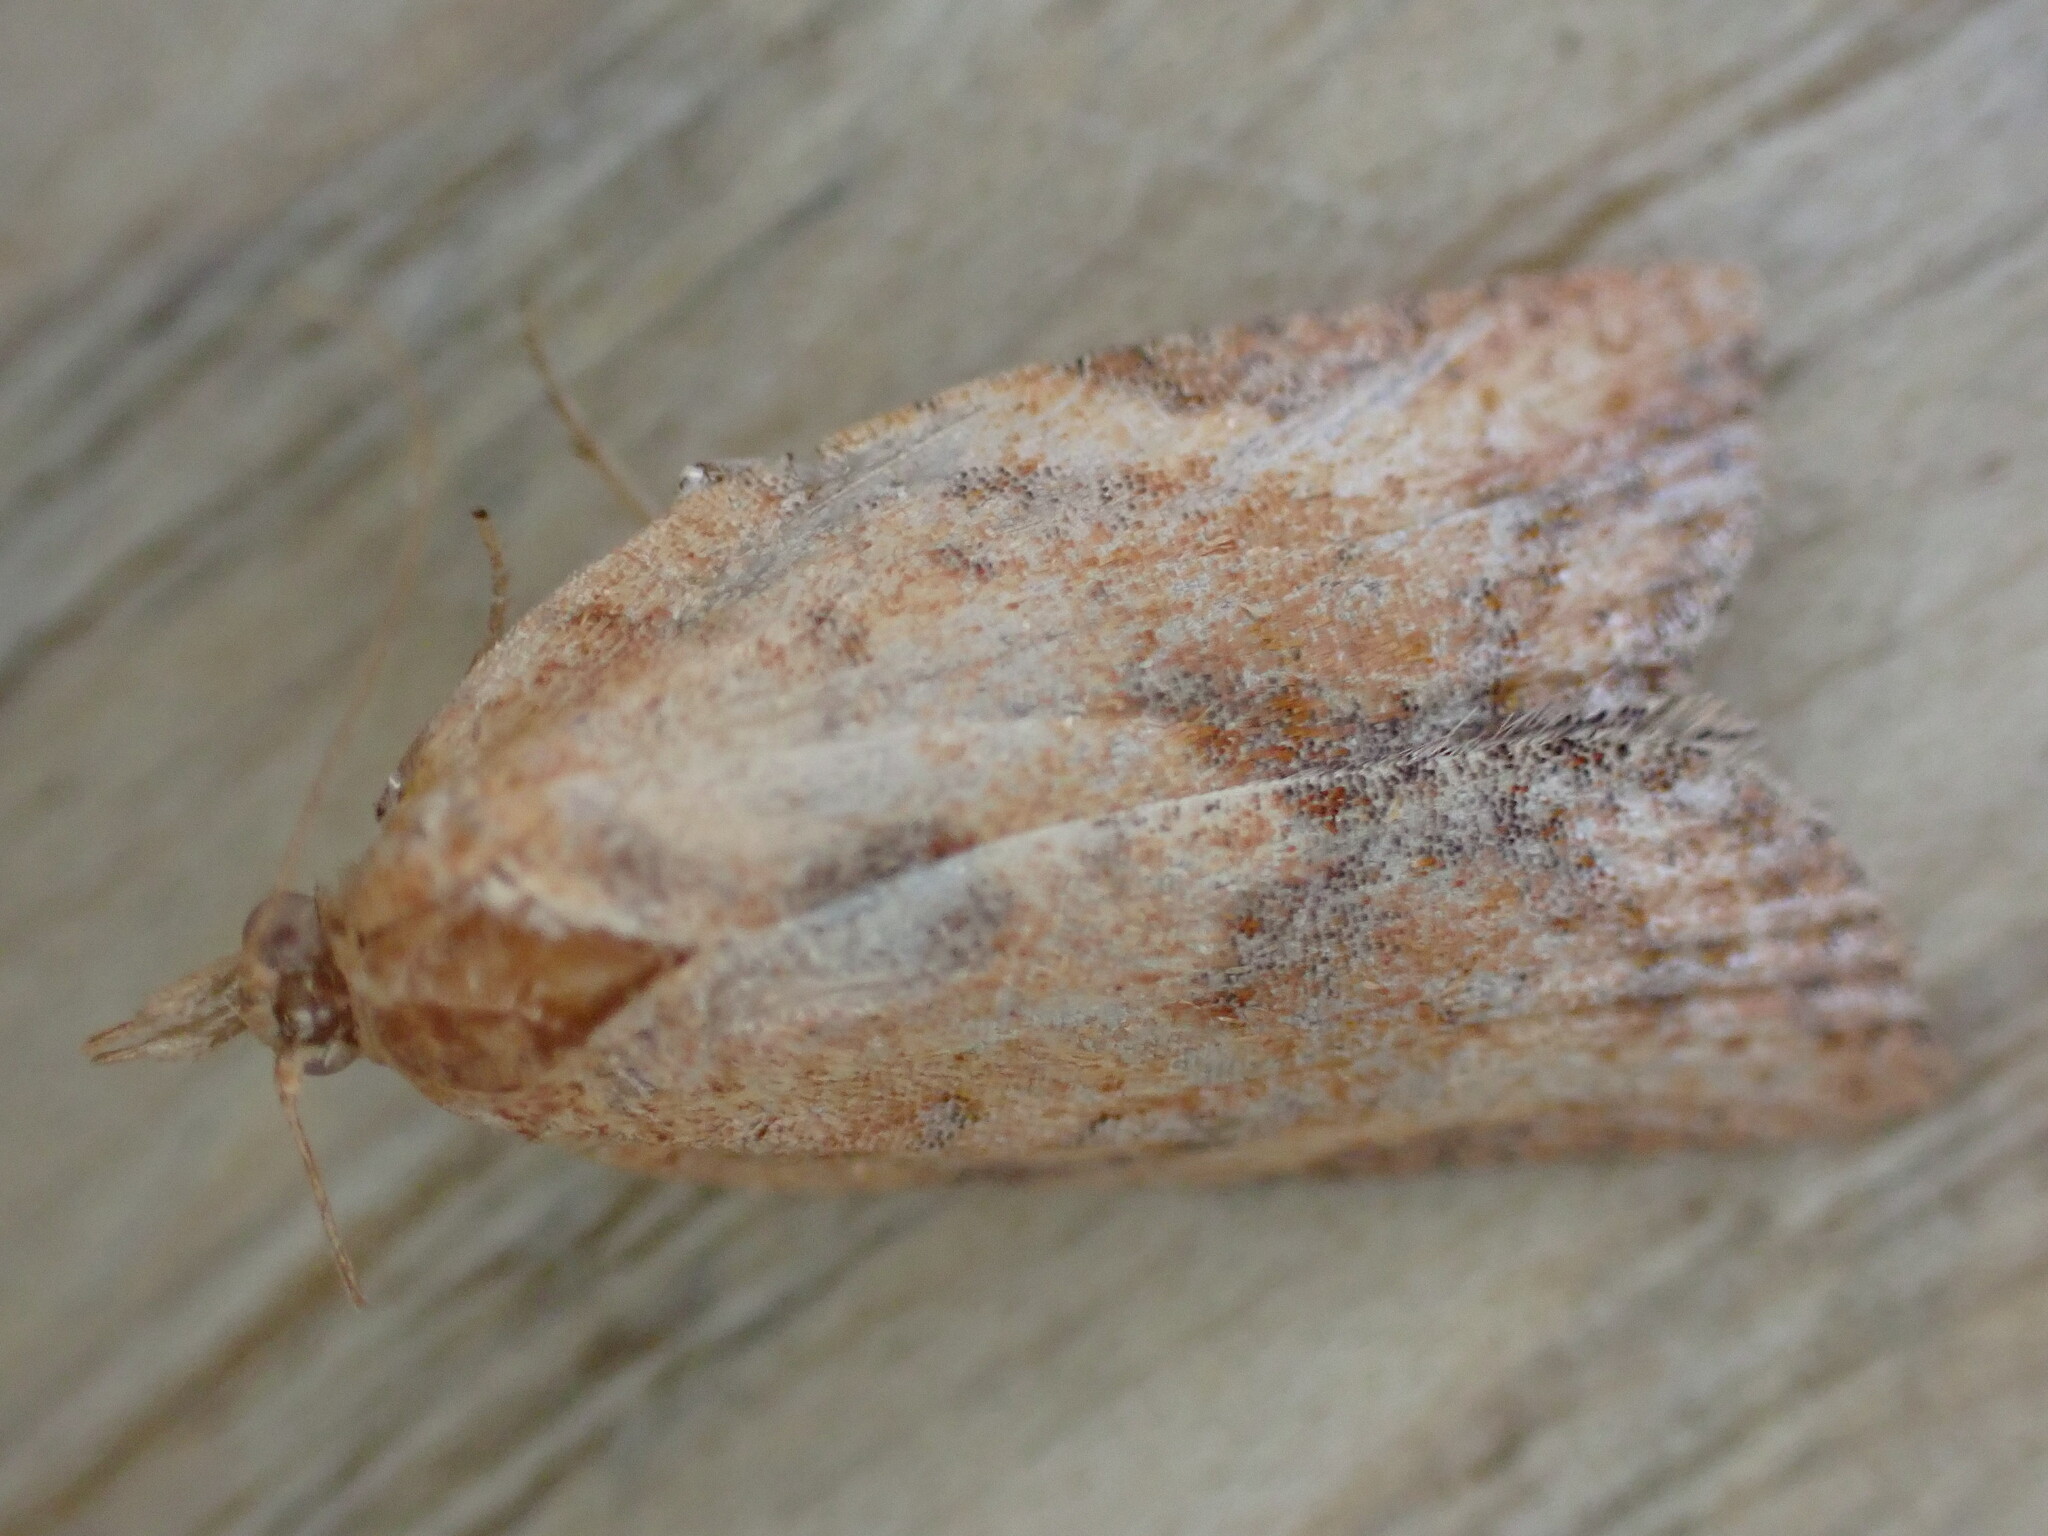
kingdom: Animalia
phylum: Arthropoda
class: Insecta
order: Lepidoptera
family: Tortricidae
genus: Epiphyas
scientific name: Epiphyas postvittana
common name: Light brown apple moth
